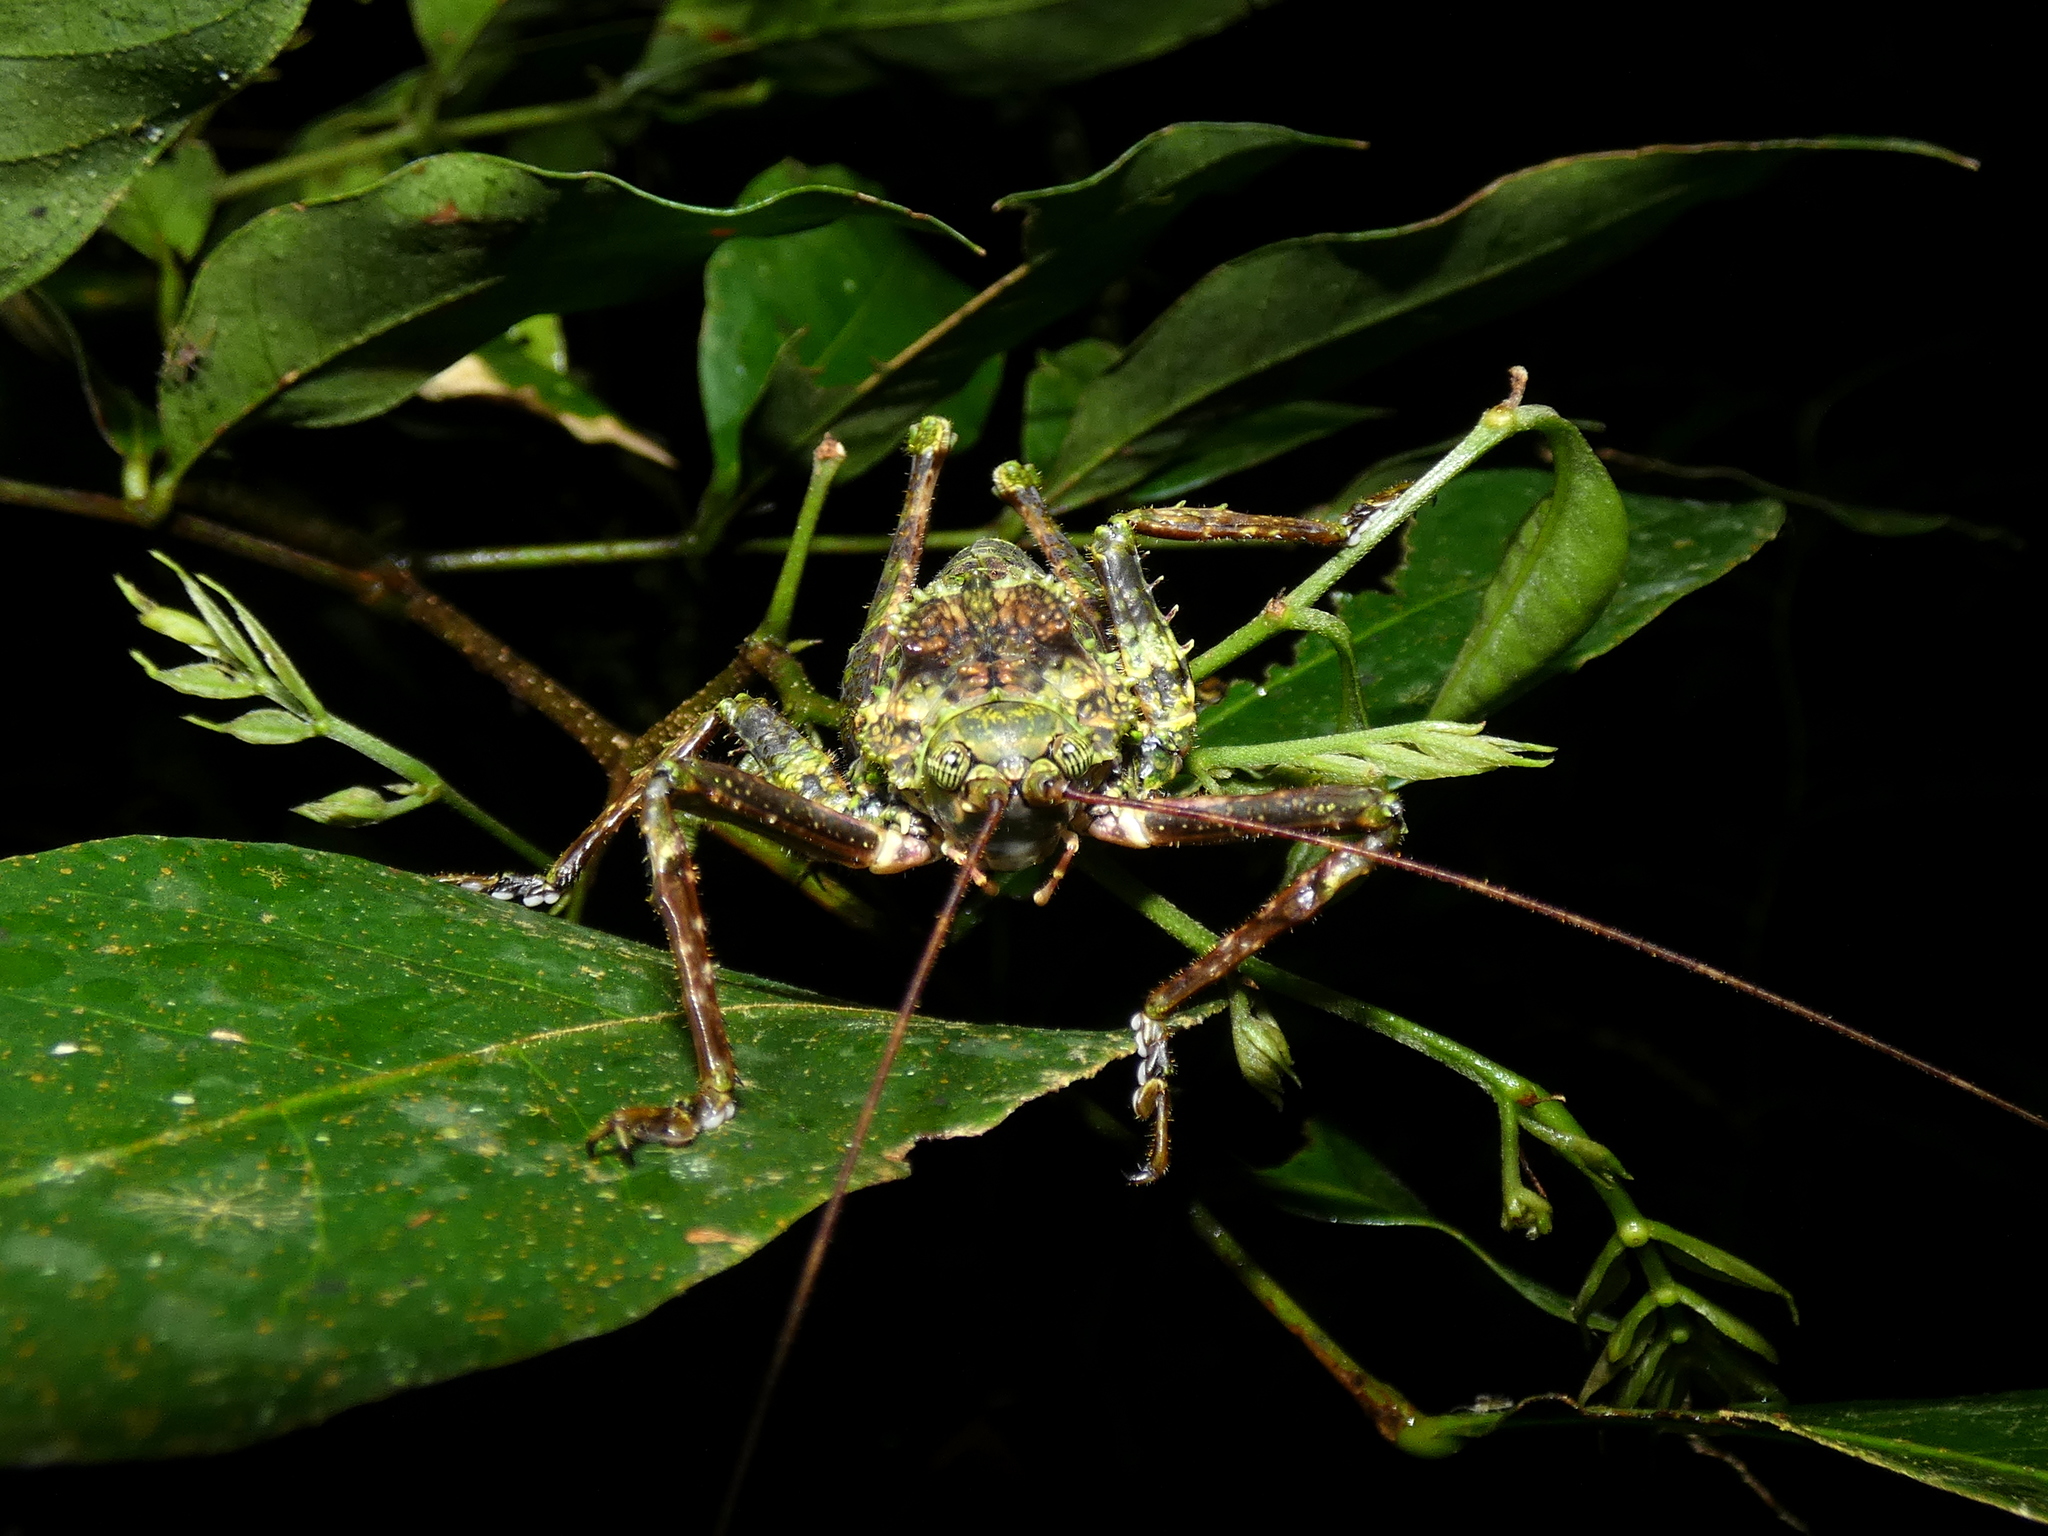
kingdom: Animalia
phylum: Arthropoda
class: Insecta
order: Orthoptera
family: Tettigoniidae
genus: Championica
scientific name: Championica humilis
